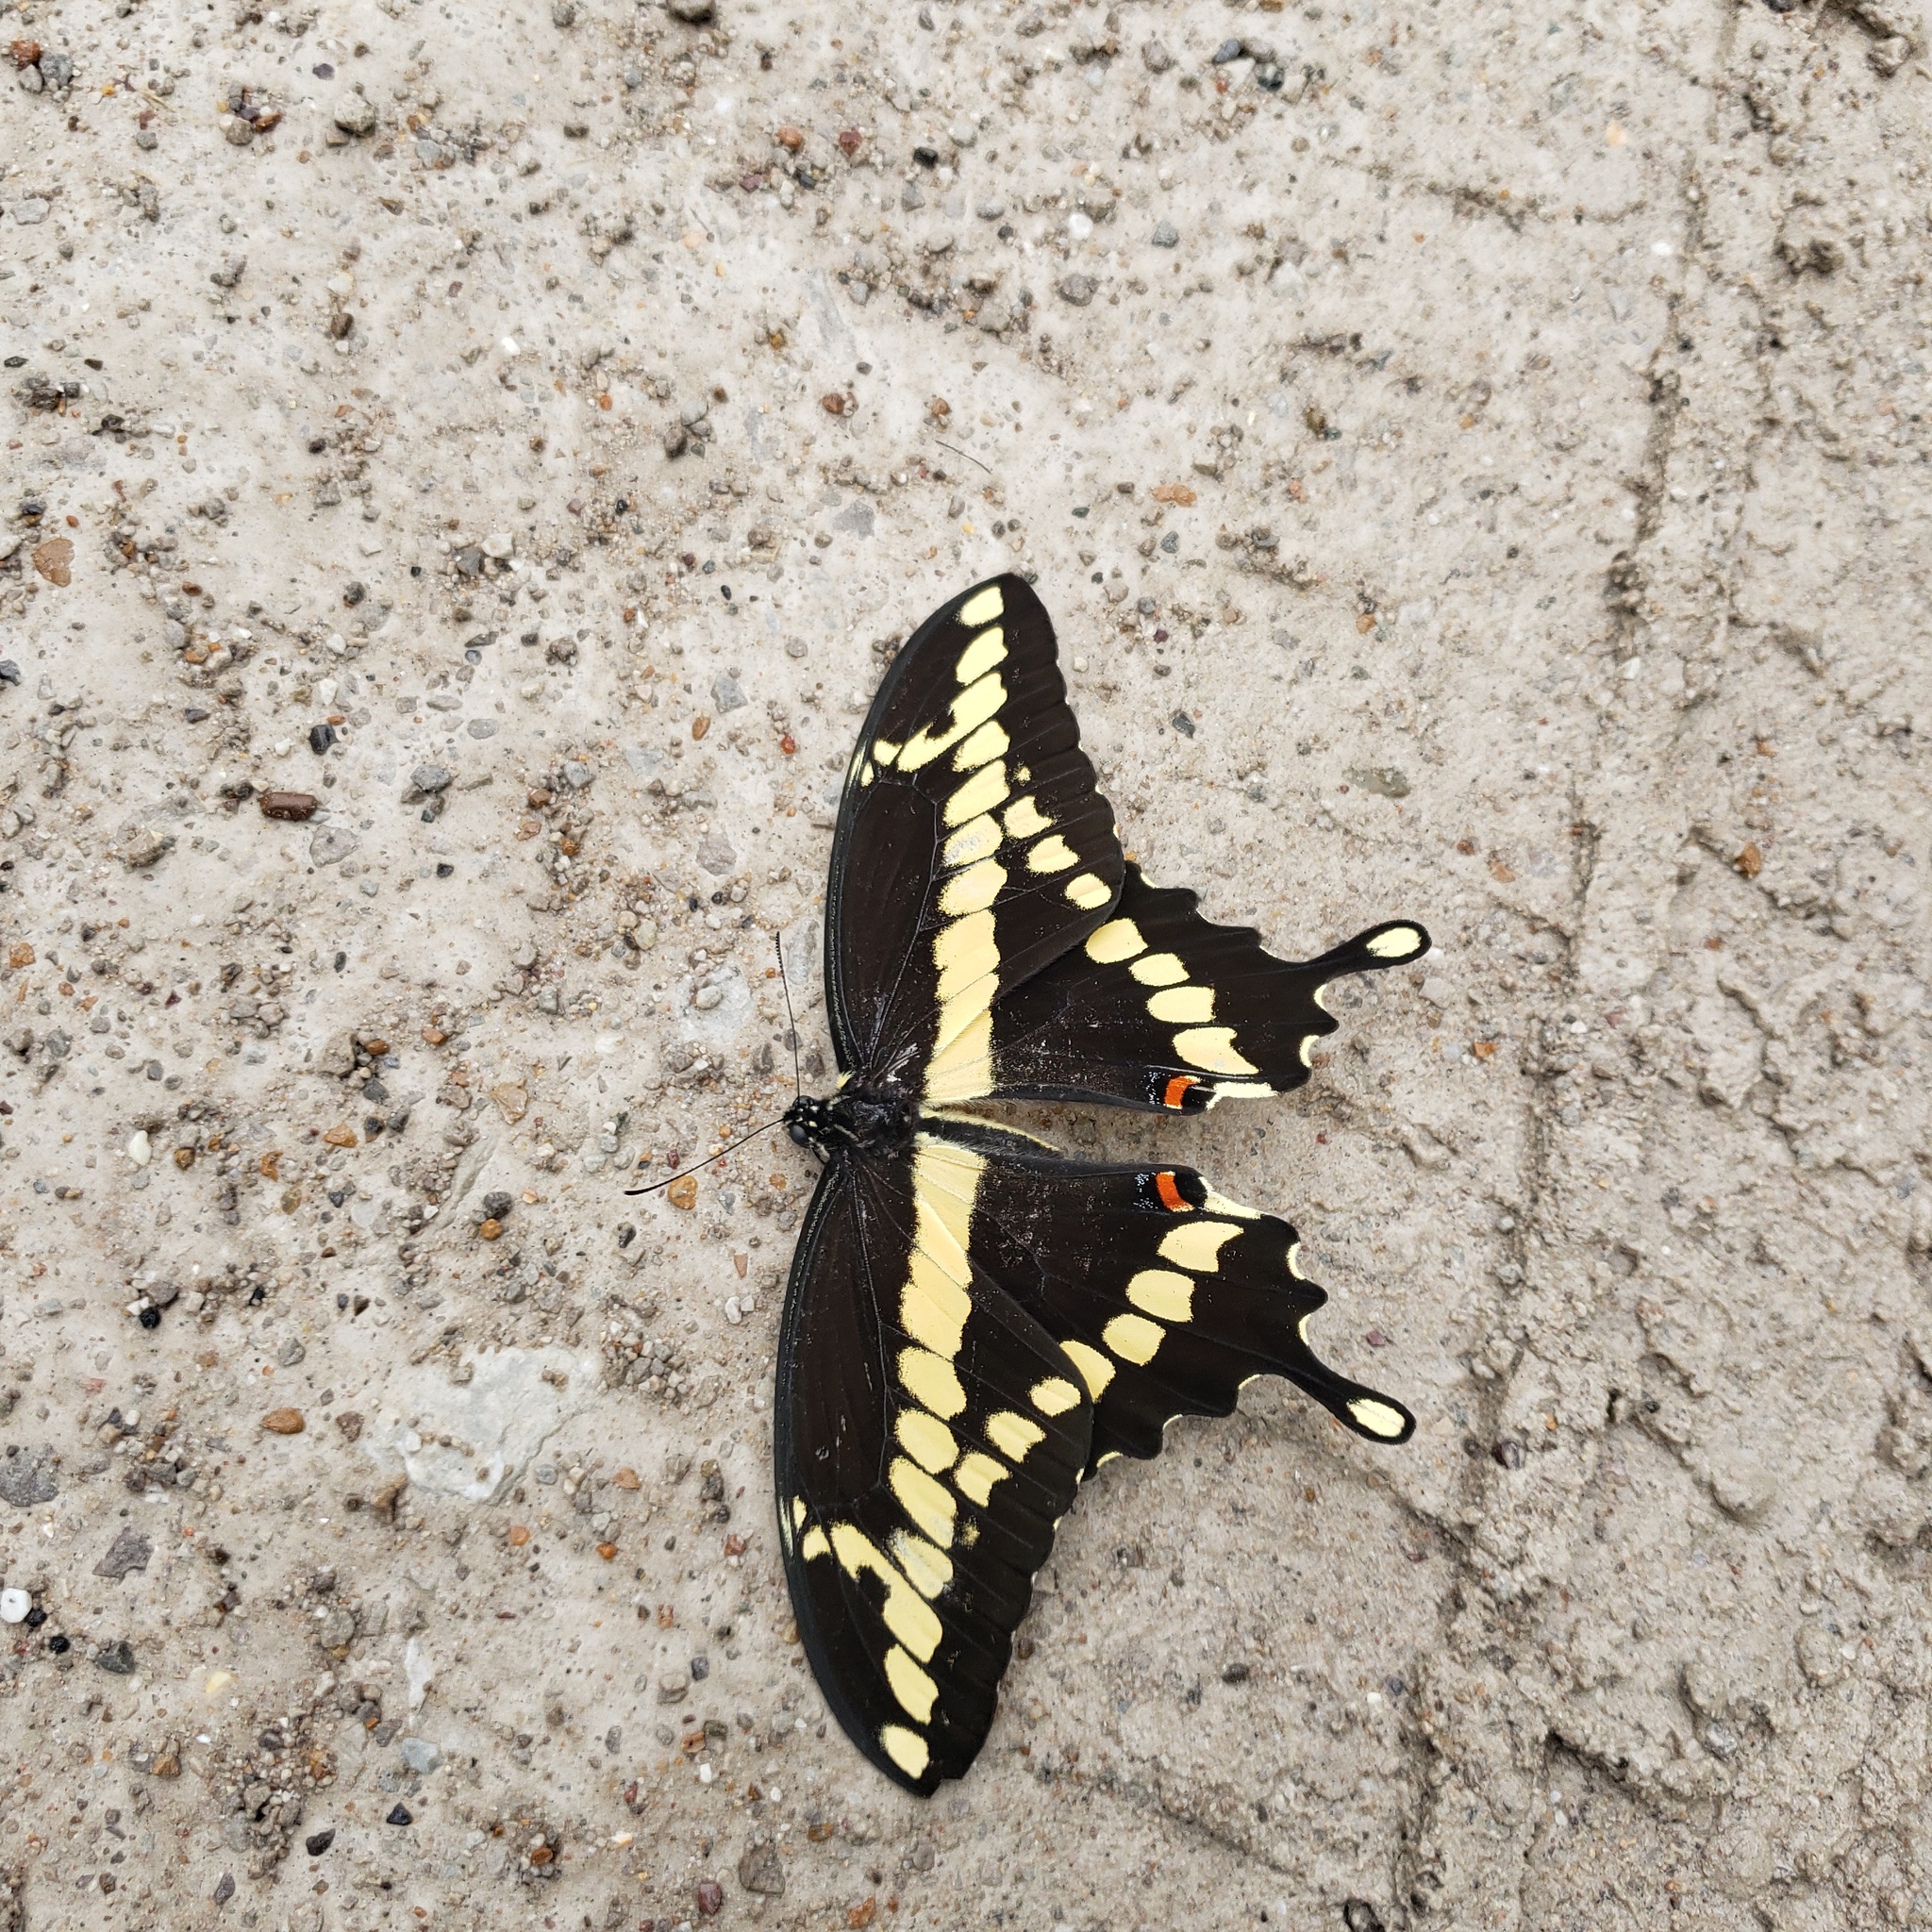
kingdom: Animalia
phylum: Arthropoda
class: Insecta
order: Lepidoptera
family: Papilionidae
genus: Papilio
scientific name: Papilio cresphontes
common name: Giant swallowtail
